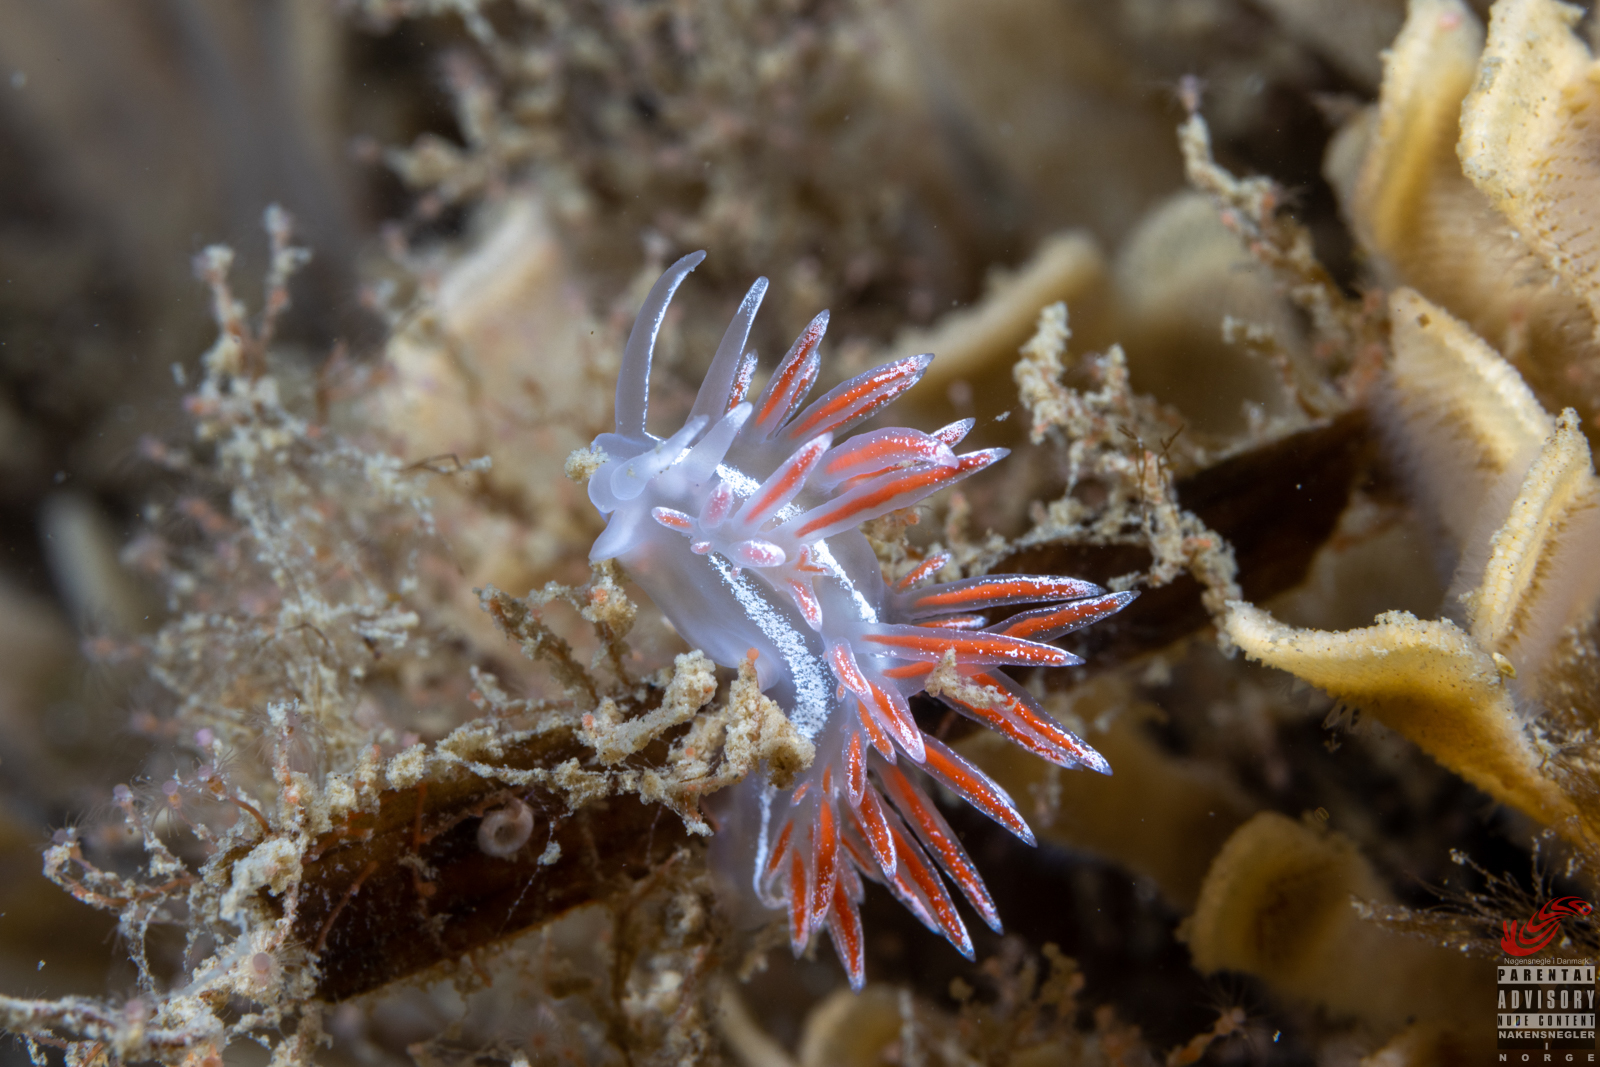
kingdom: Animalia
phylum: Mollusca
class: Gastropoda
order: Nudibranchia
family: Coryphellidae
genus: Coryphella
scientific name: Coryphella monicae
